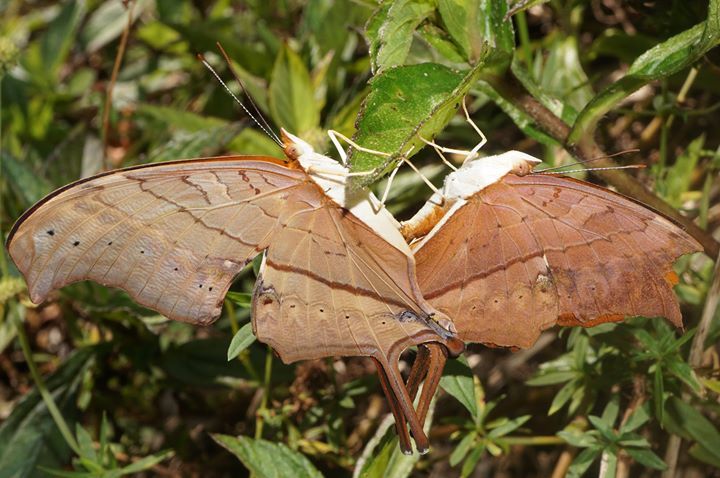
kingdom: Animalia
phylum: Arthropoda
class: Insecta
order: Lepidoptera
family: Nymphalidae
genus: Marpesia
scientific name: Marpesia petreus
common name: Red dagger wing
